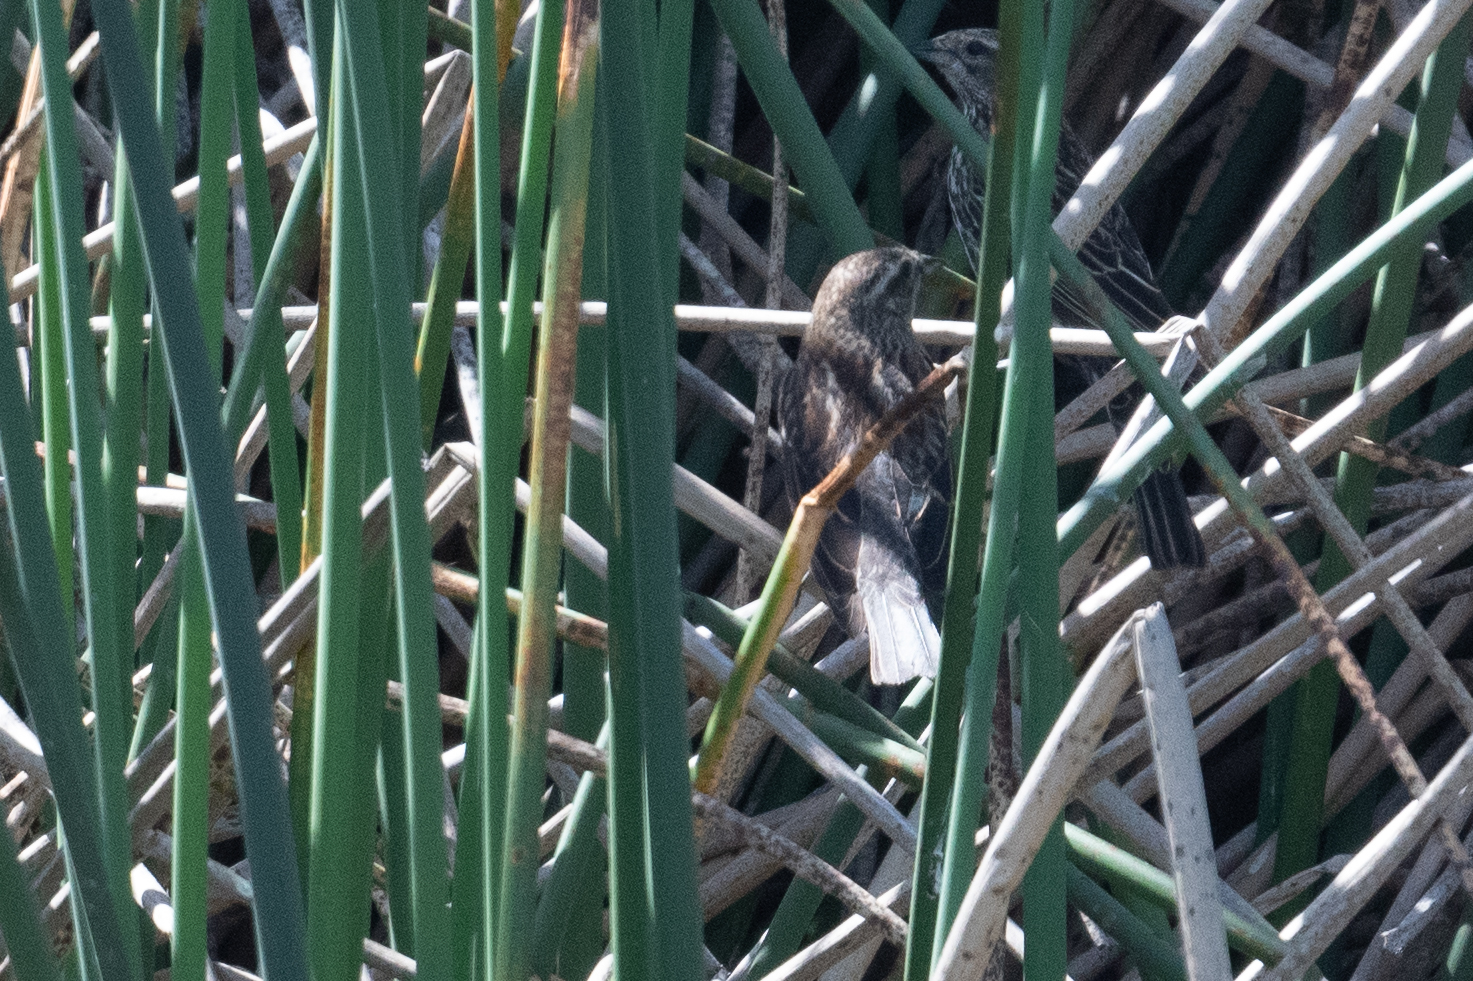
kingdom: Animalia
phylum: Chordata
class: Aves
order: Passeriformes
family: Icteridae
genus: Agelaius
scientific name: Agelaius phoeniceus
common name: Red-winged blackbird
